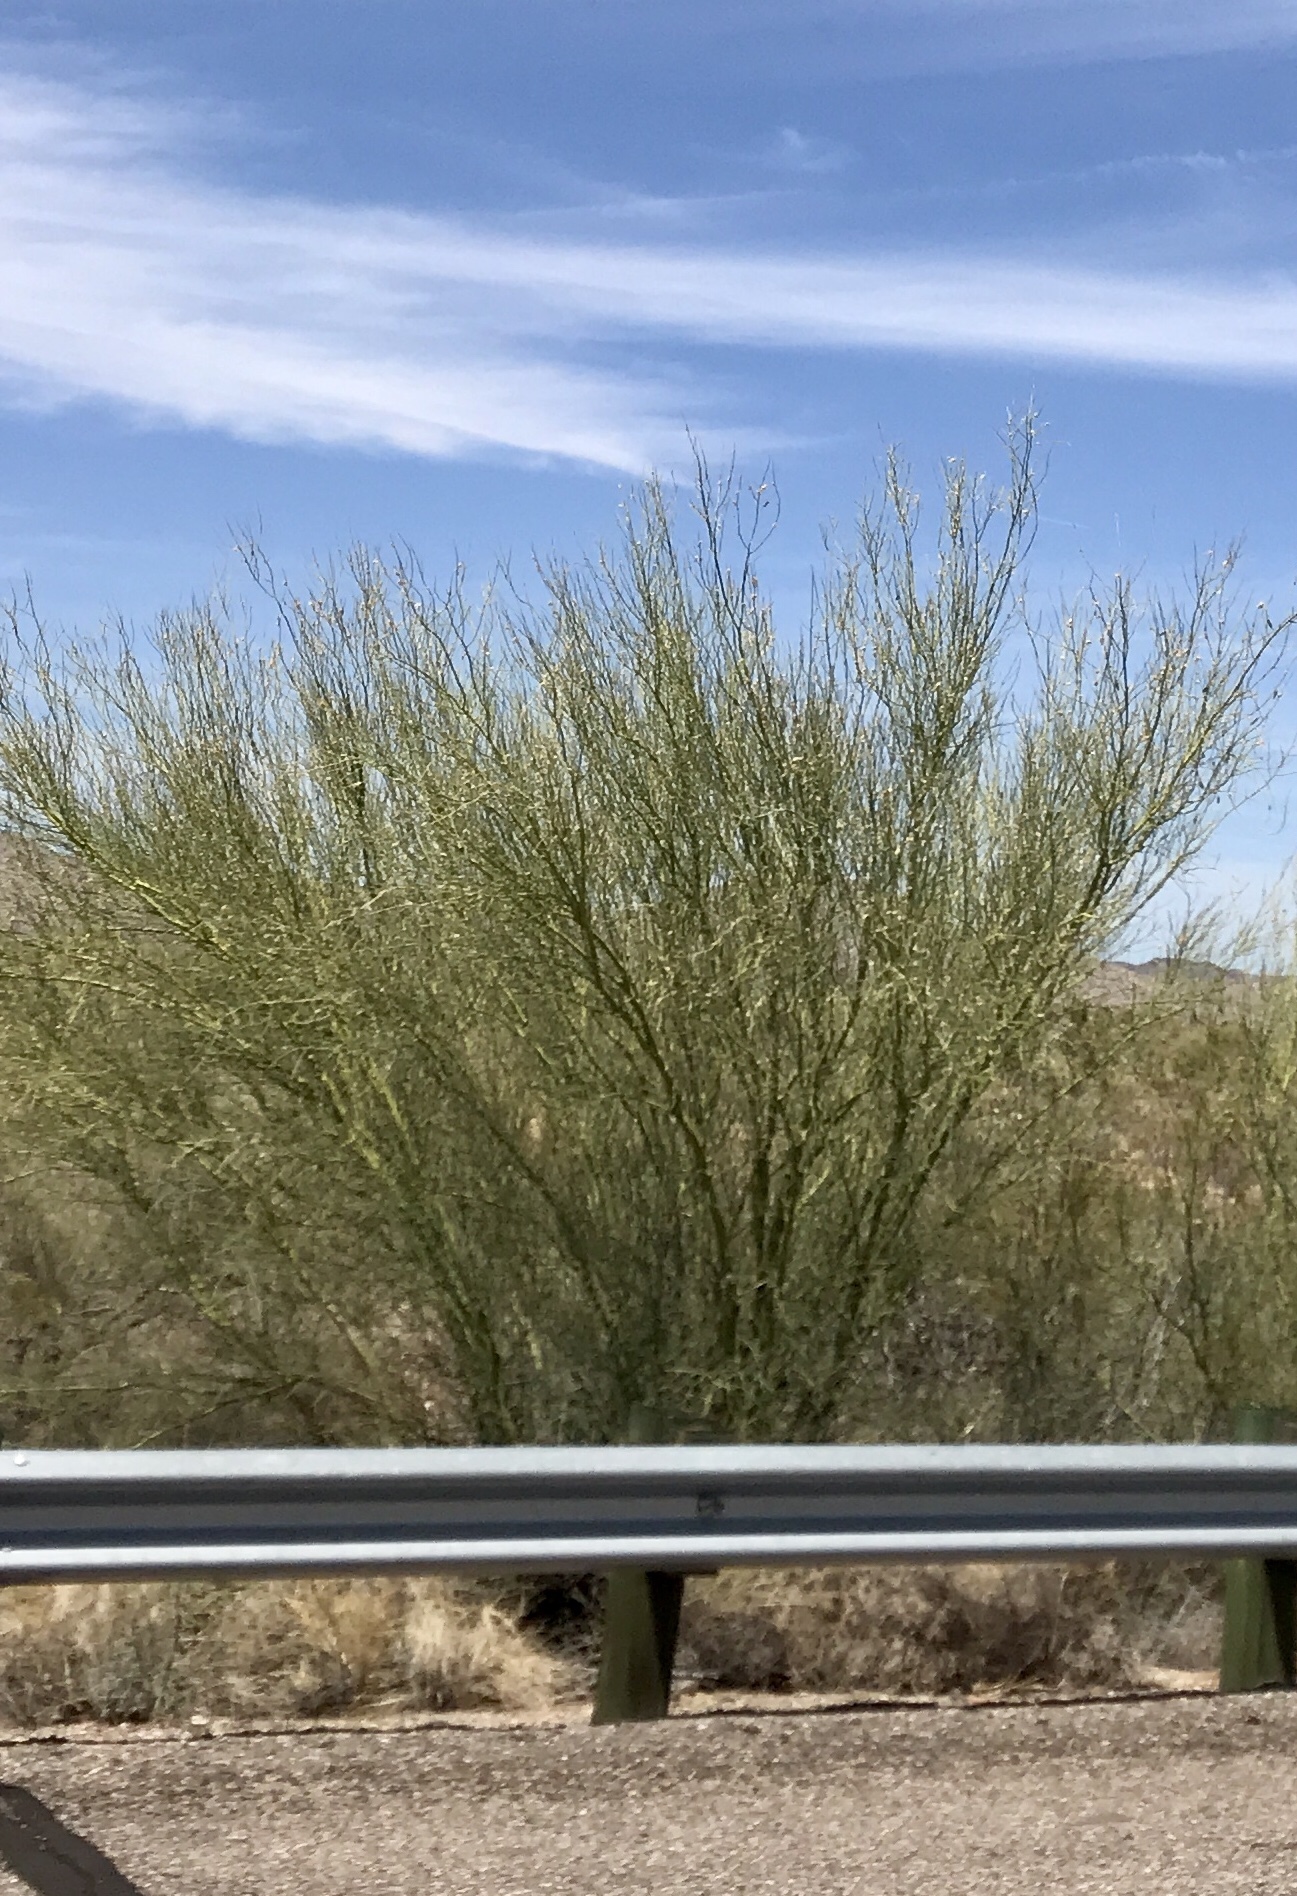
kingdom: Plantae
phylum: Tracheophyta
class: Magnoliopsida
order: Fabales
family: Fabaceae
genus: Parkinsonia
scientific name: Parkinsonia microphylla
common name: Yellow paloverde
